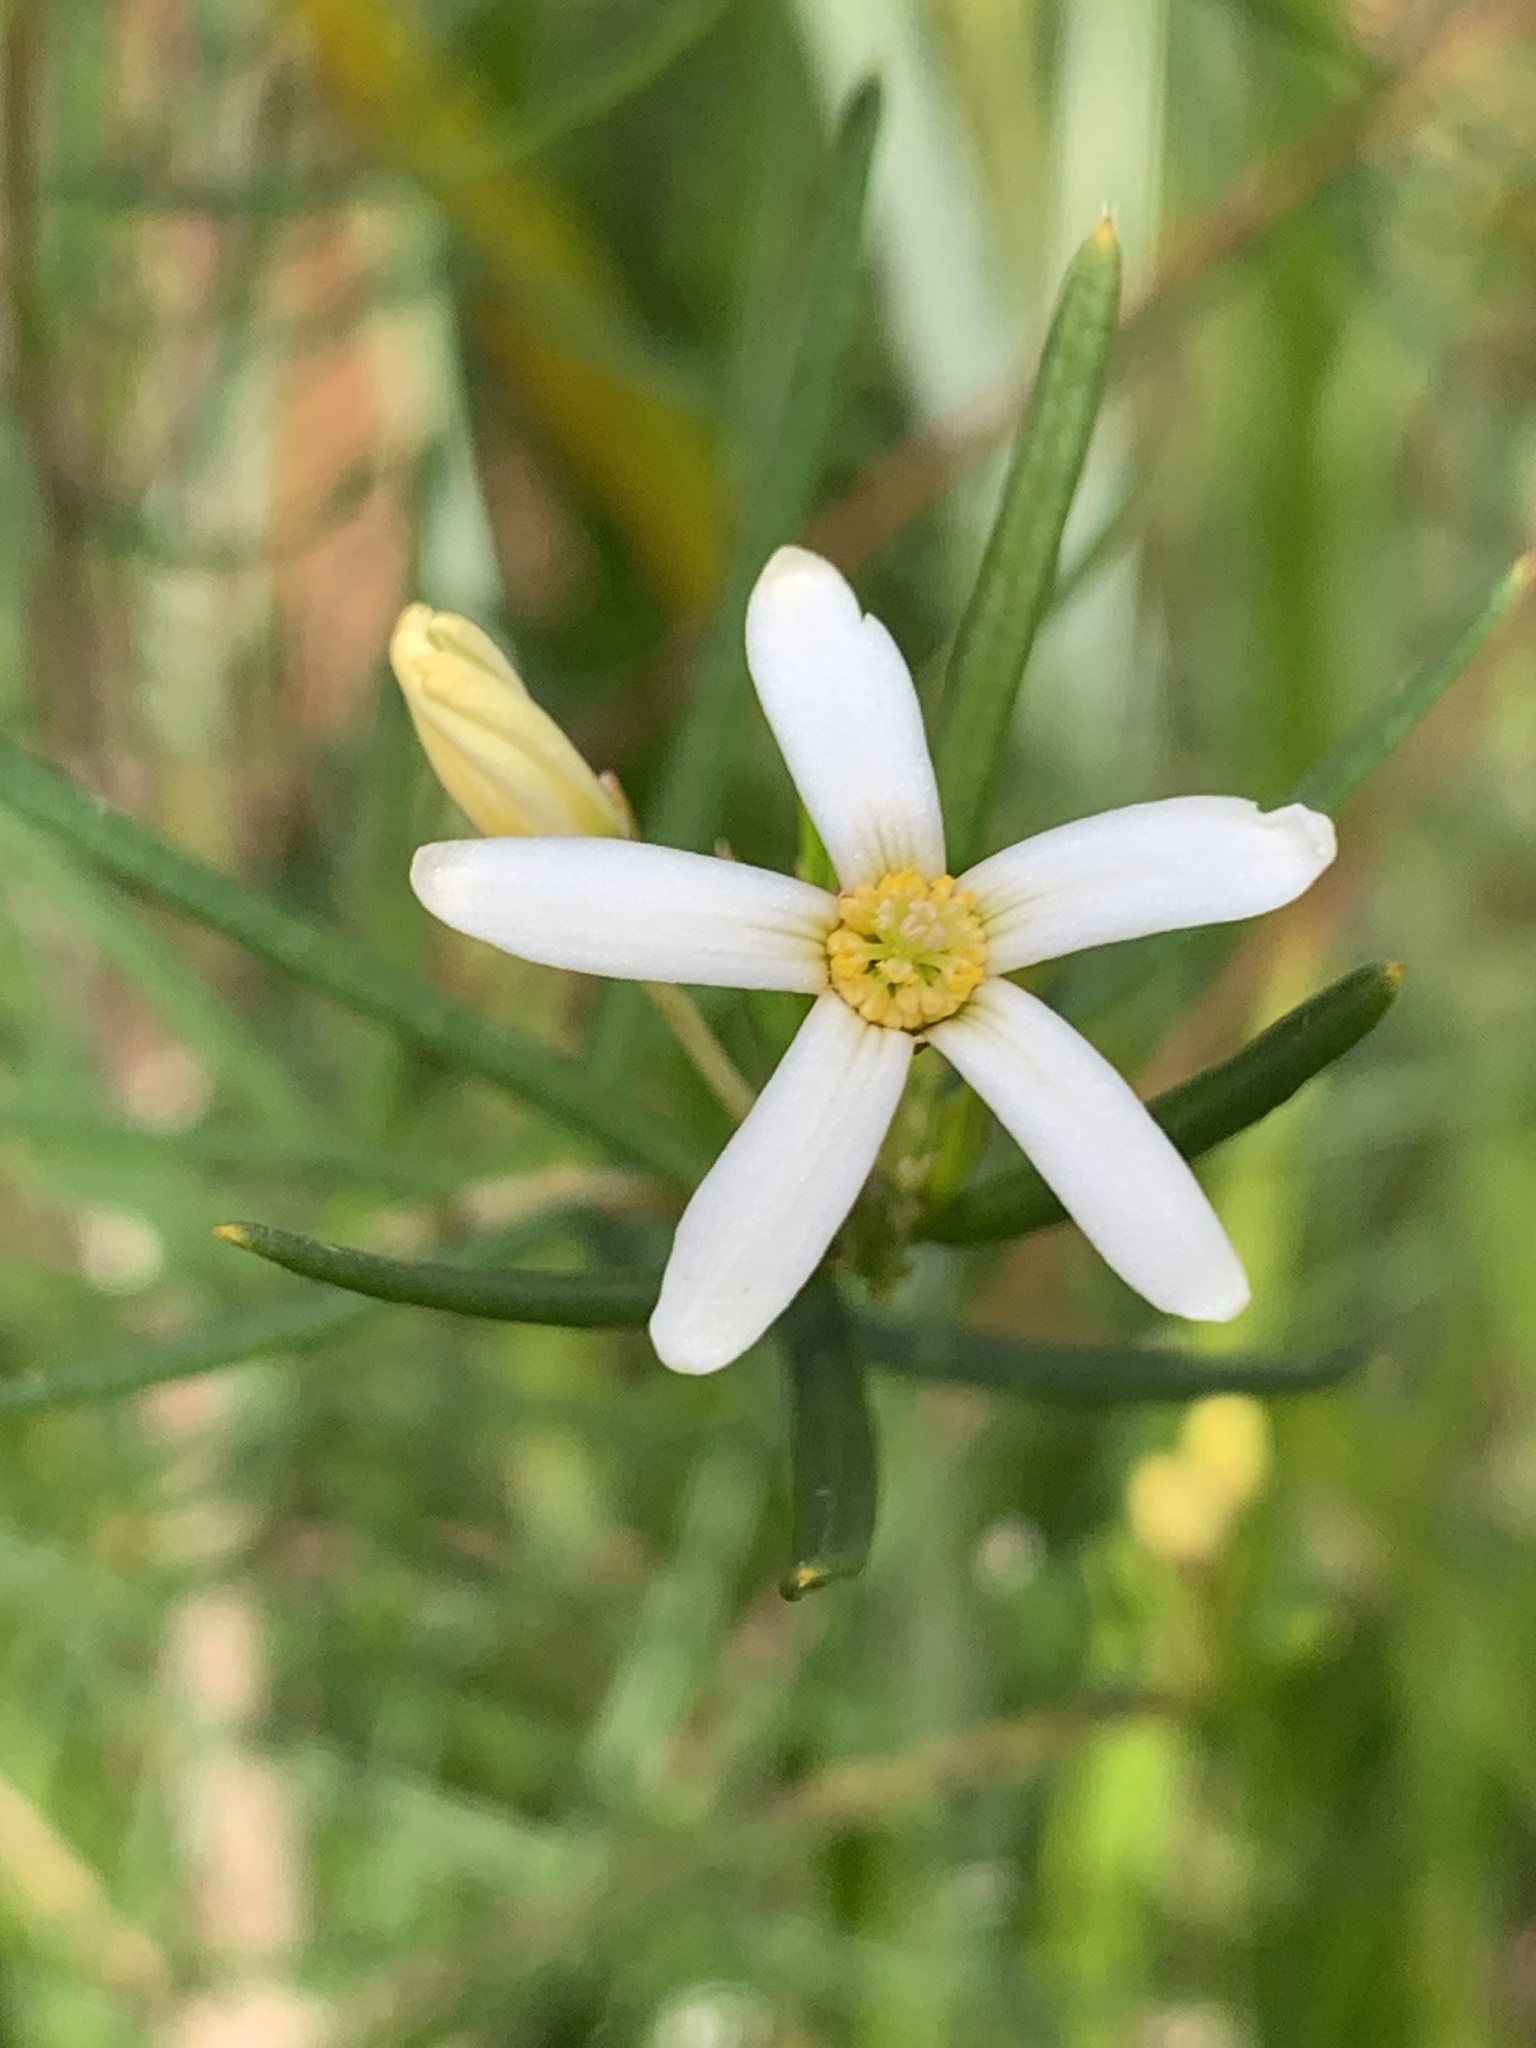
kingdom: Plantae
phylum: Tracheophyta
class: Magnoliopsida
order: Malpighiales
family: Euphorbiaceae
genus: Ricinocarpos
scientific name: Ricinocarpos glaucus
